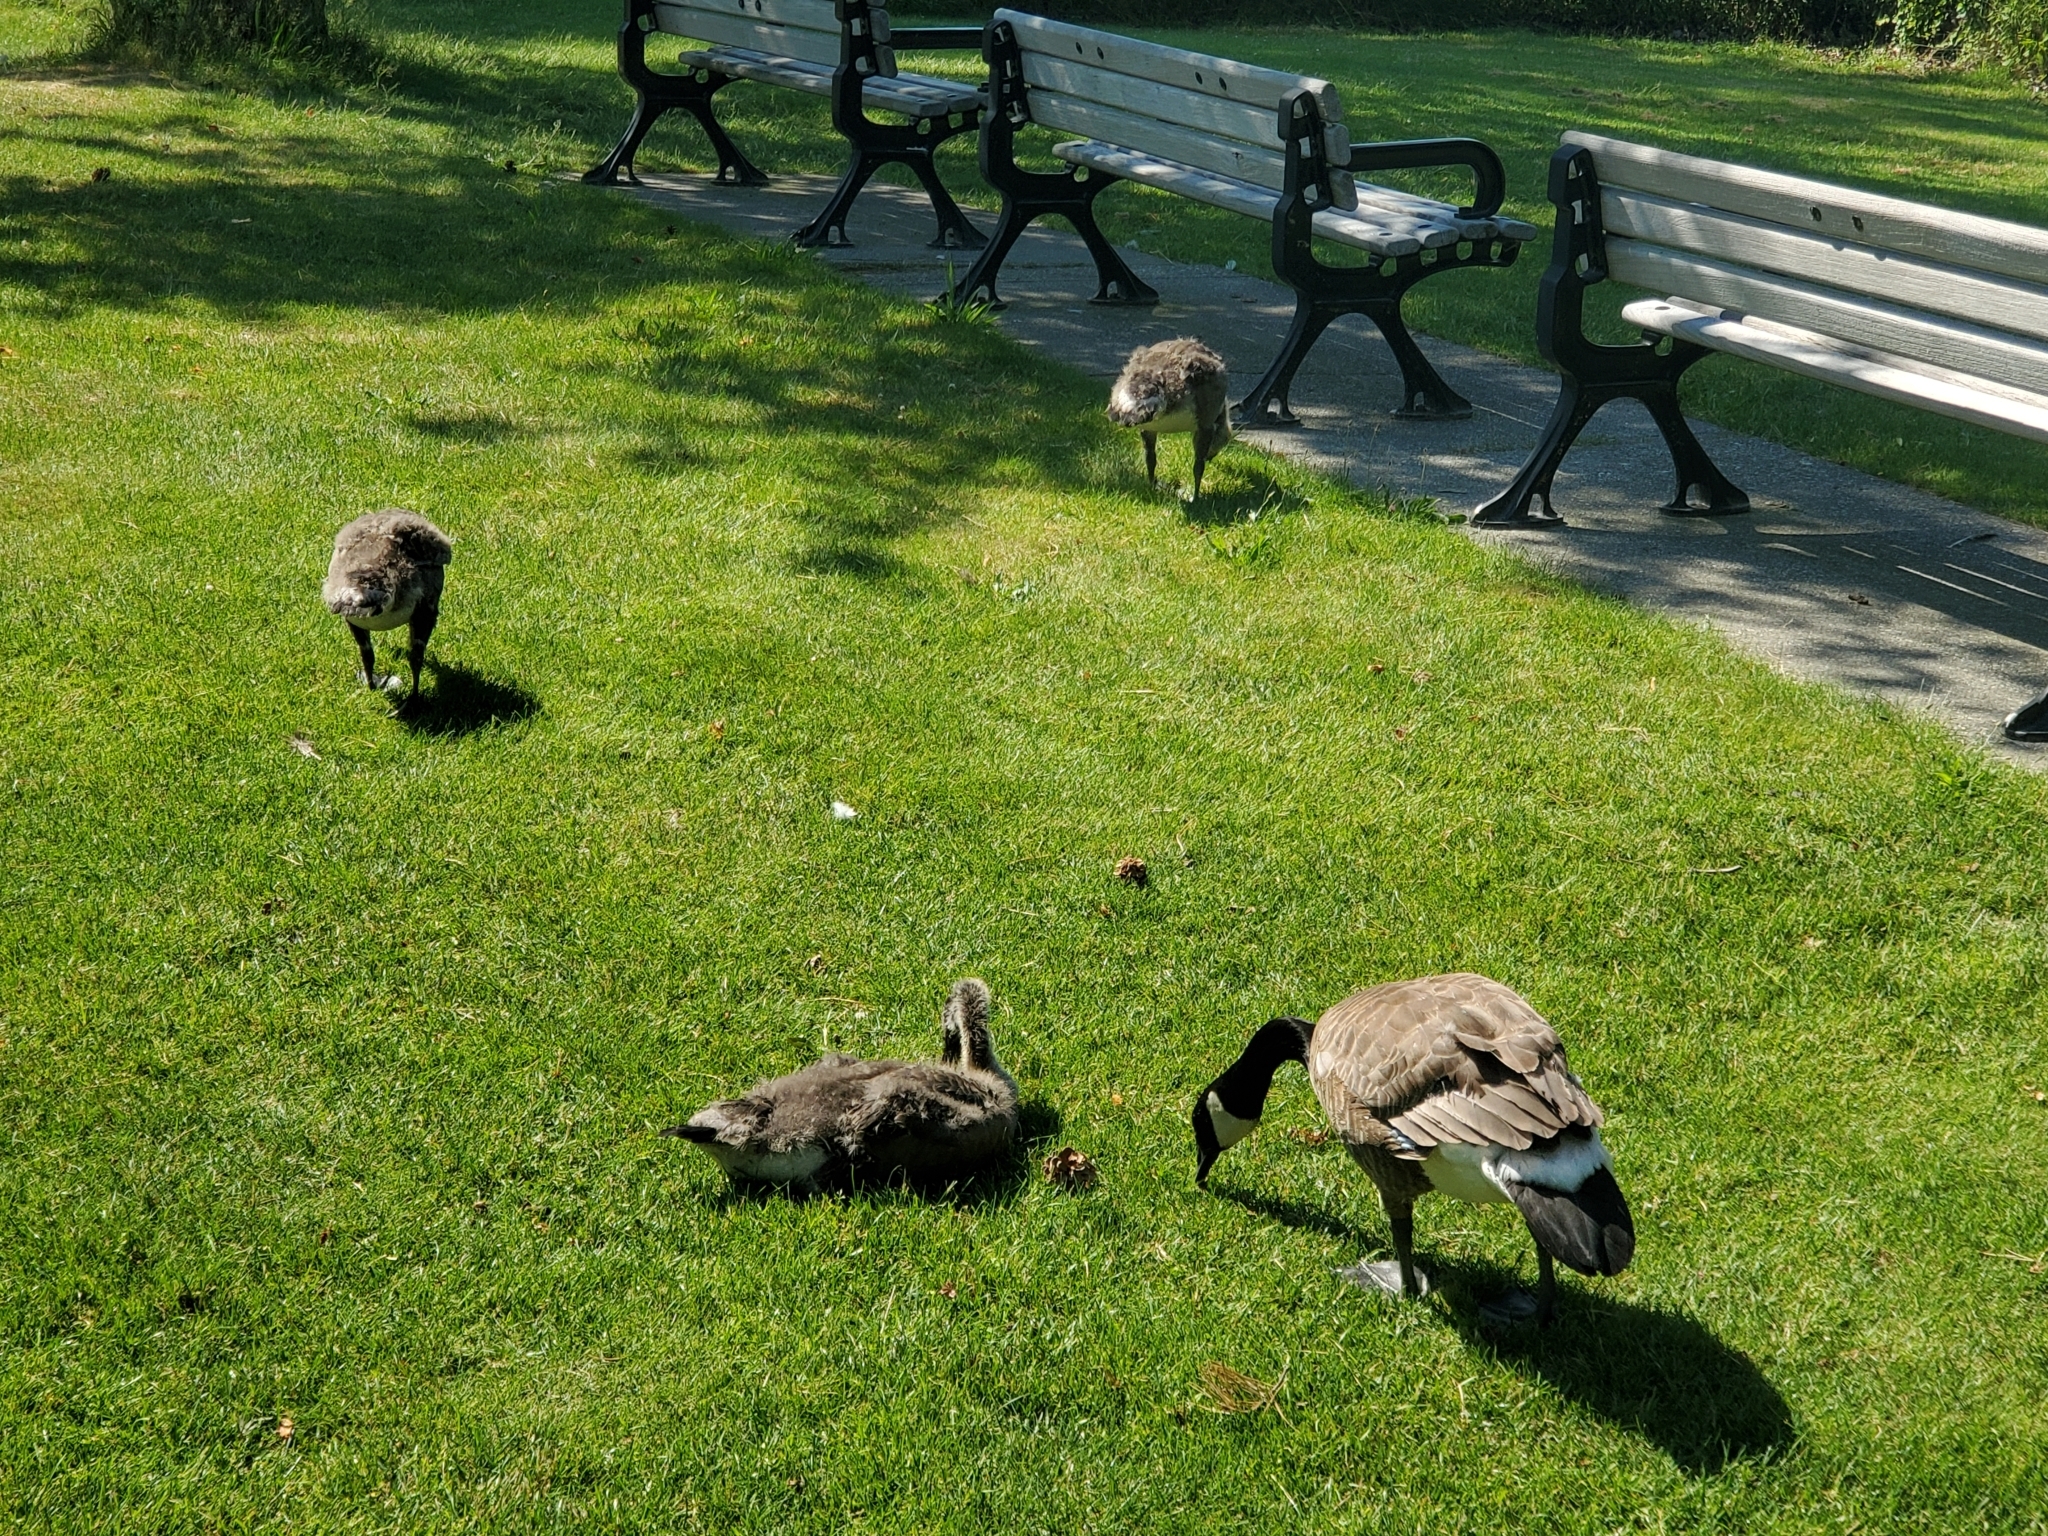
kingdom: Animalia
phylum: Chordata
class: Aves
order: Anseriformes
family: Anatidae
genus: Branta
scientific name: Branta canadensis
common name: Canada goose
